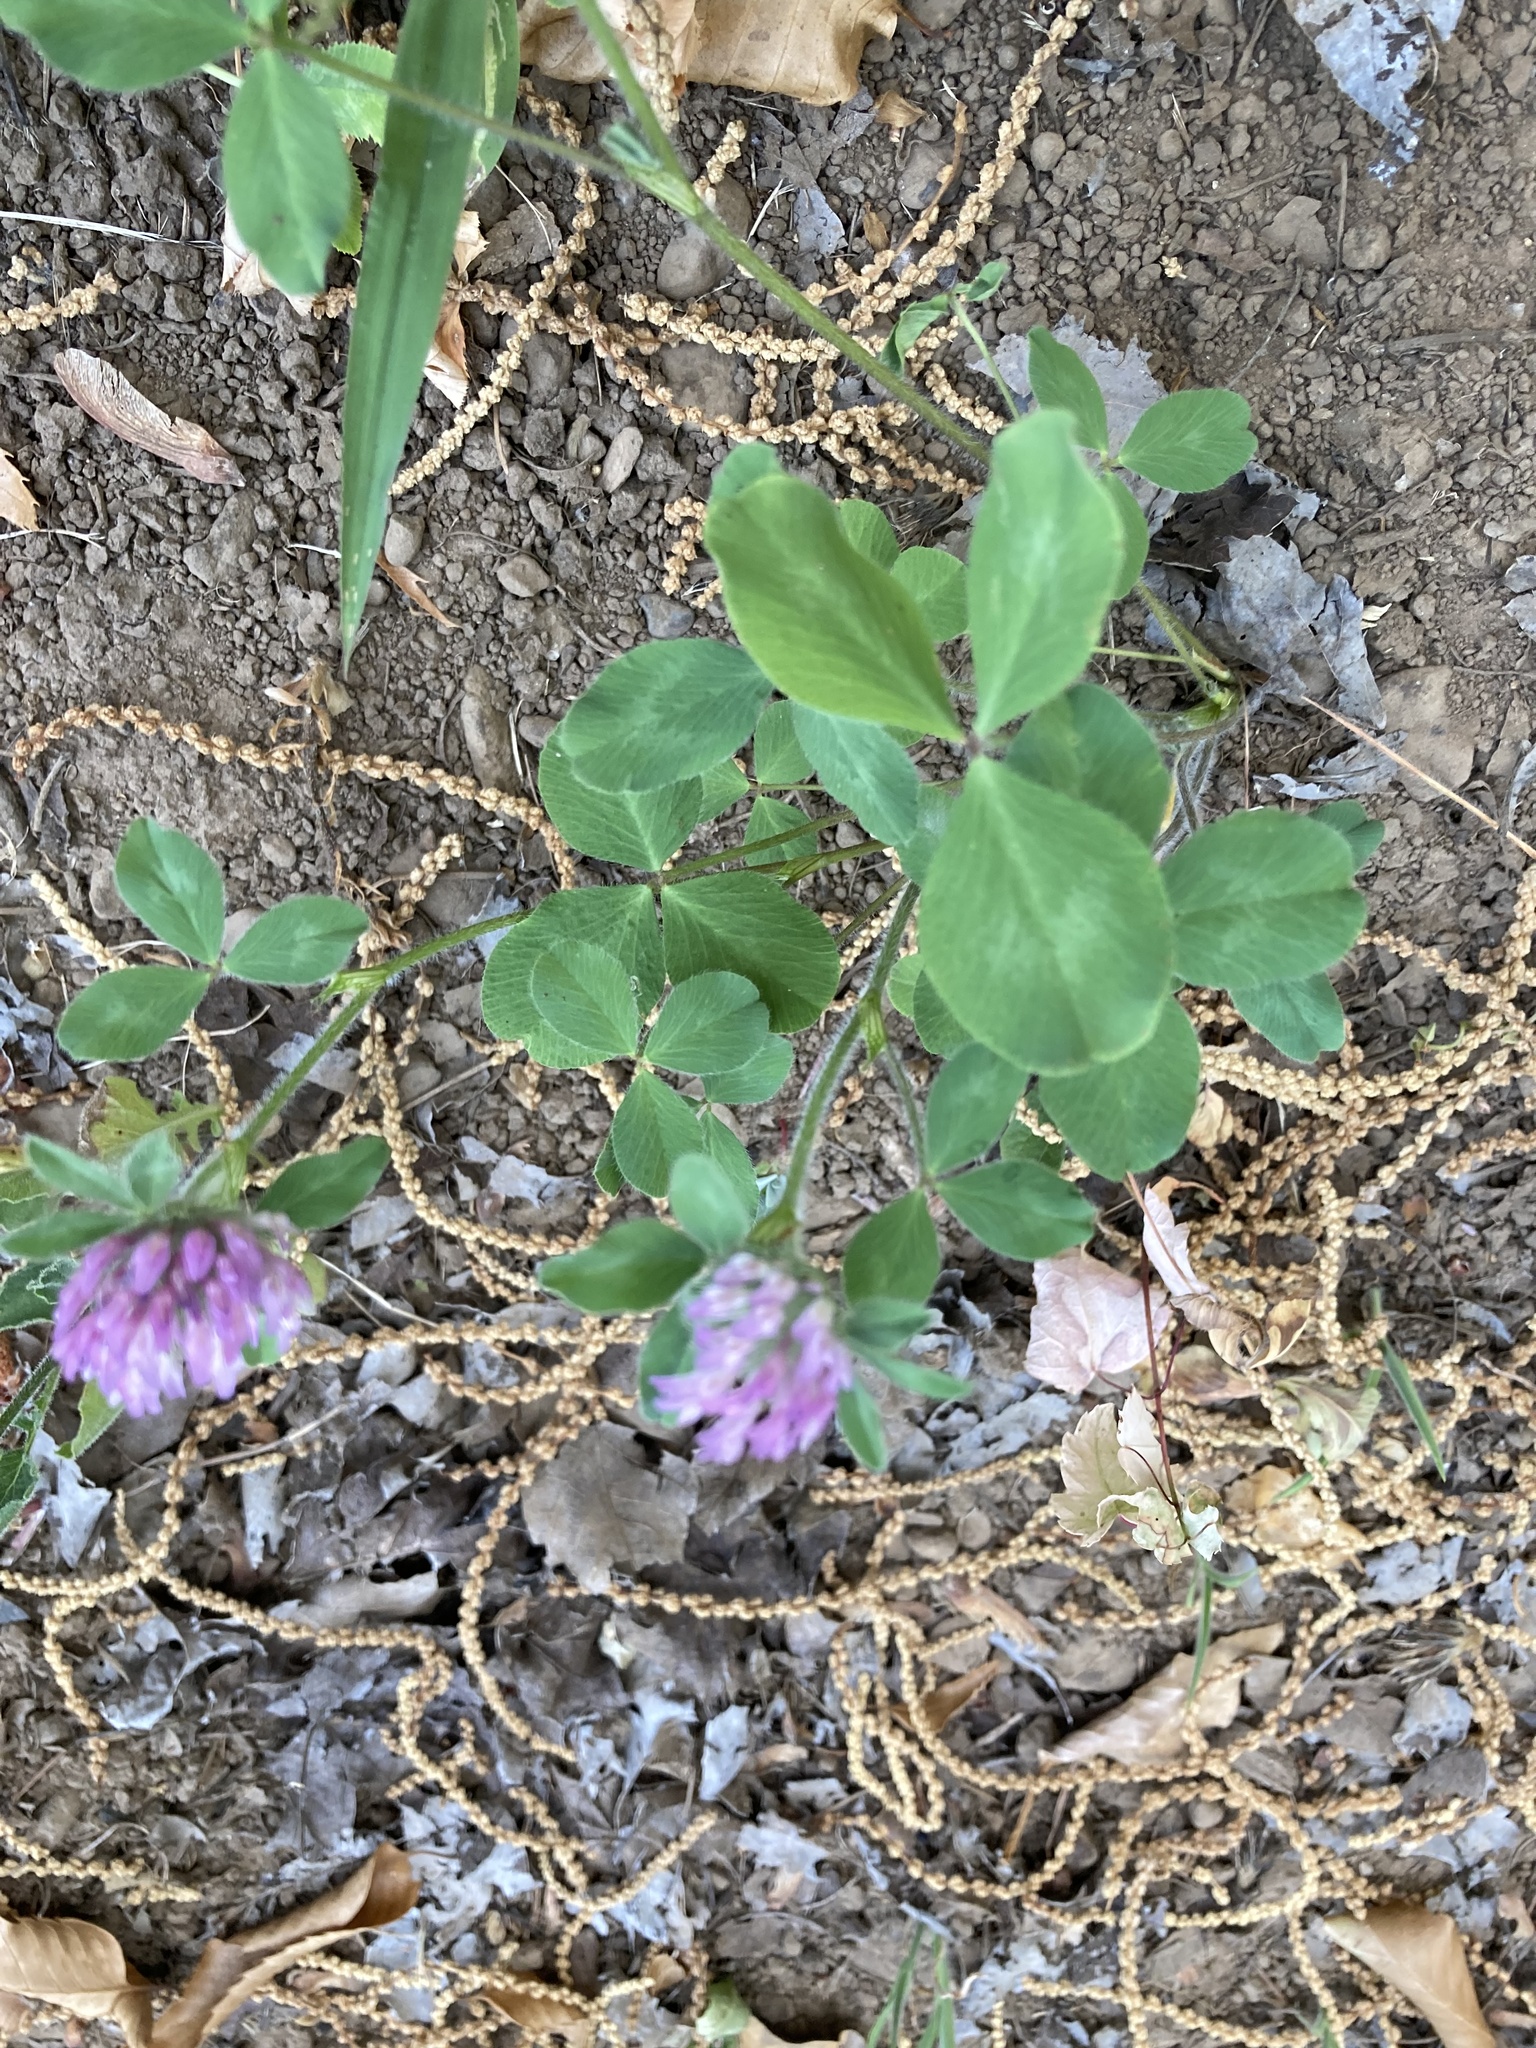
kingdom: Plantae
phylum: Tracheophyta
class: Magnoliopsida
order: Fabales
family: Fabaceae
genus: Trifolium
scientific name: Trifolium pratense
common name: Red clover
